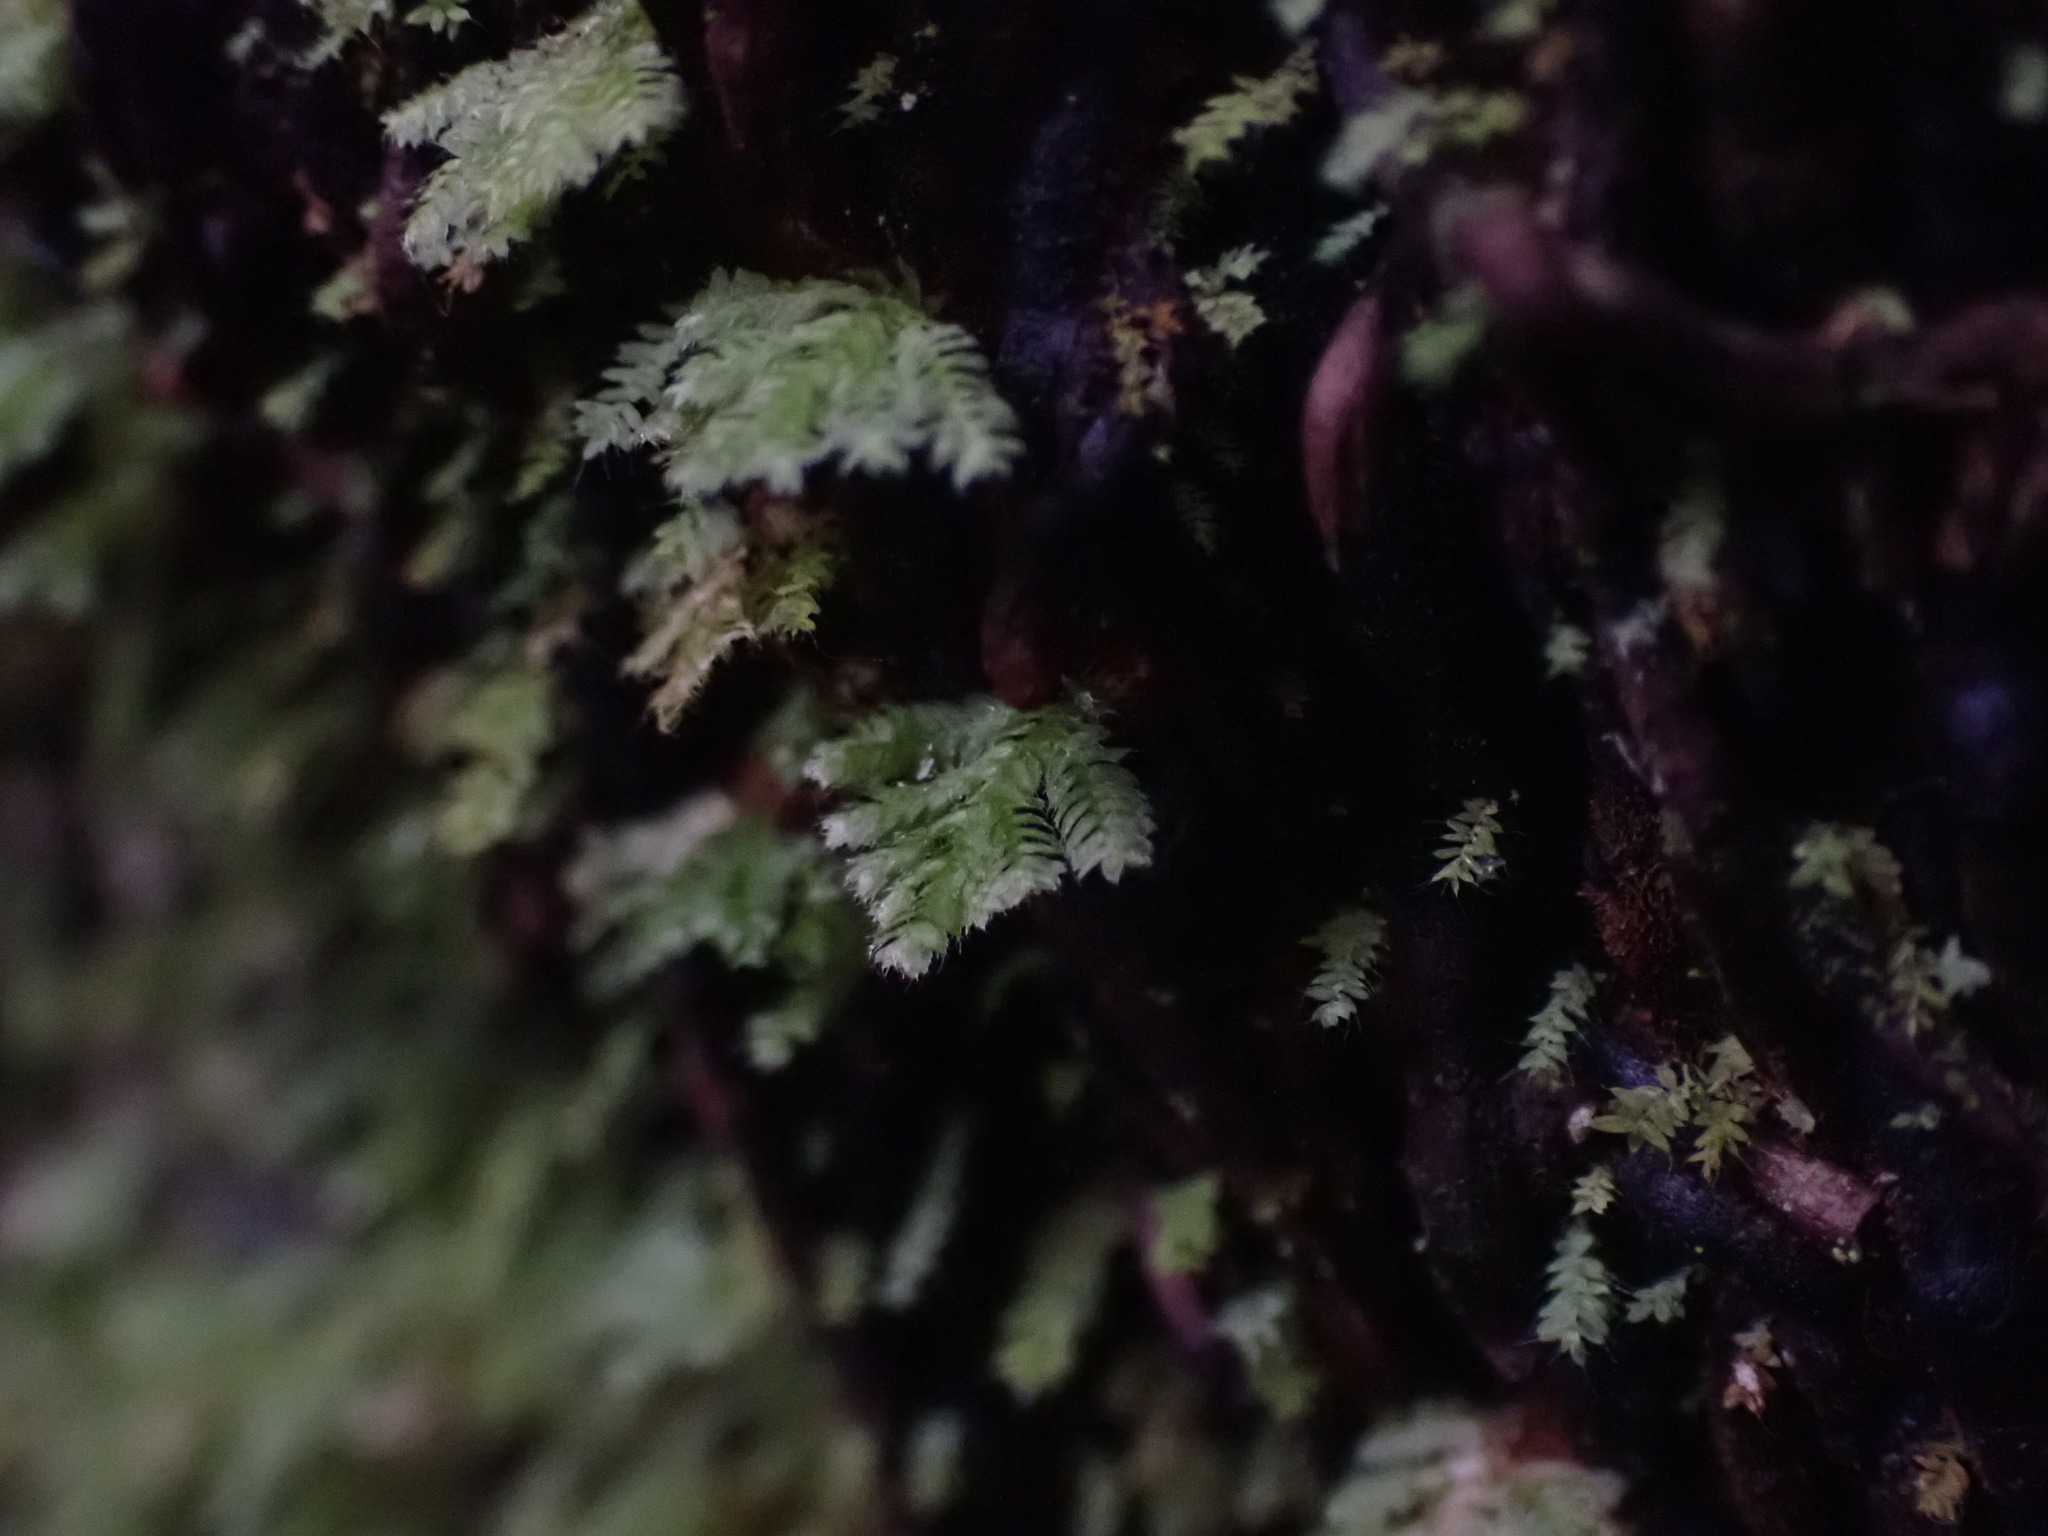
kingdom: Plantae
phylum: Bryophyta
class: Bryopsida
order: Hypopterygiales
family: Hypopterygiaceae
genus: Catharomnion
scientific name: Catharomnion ciliatum
